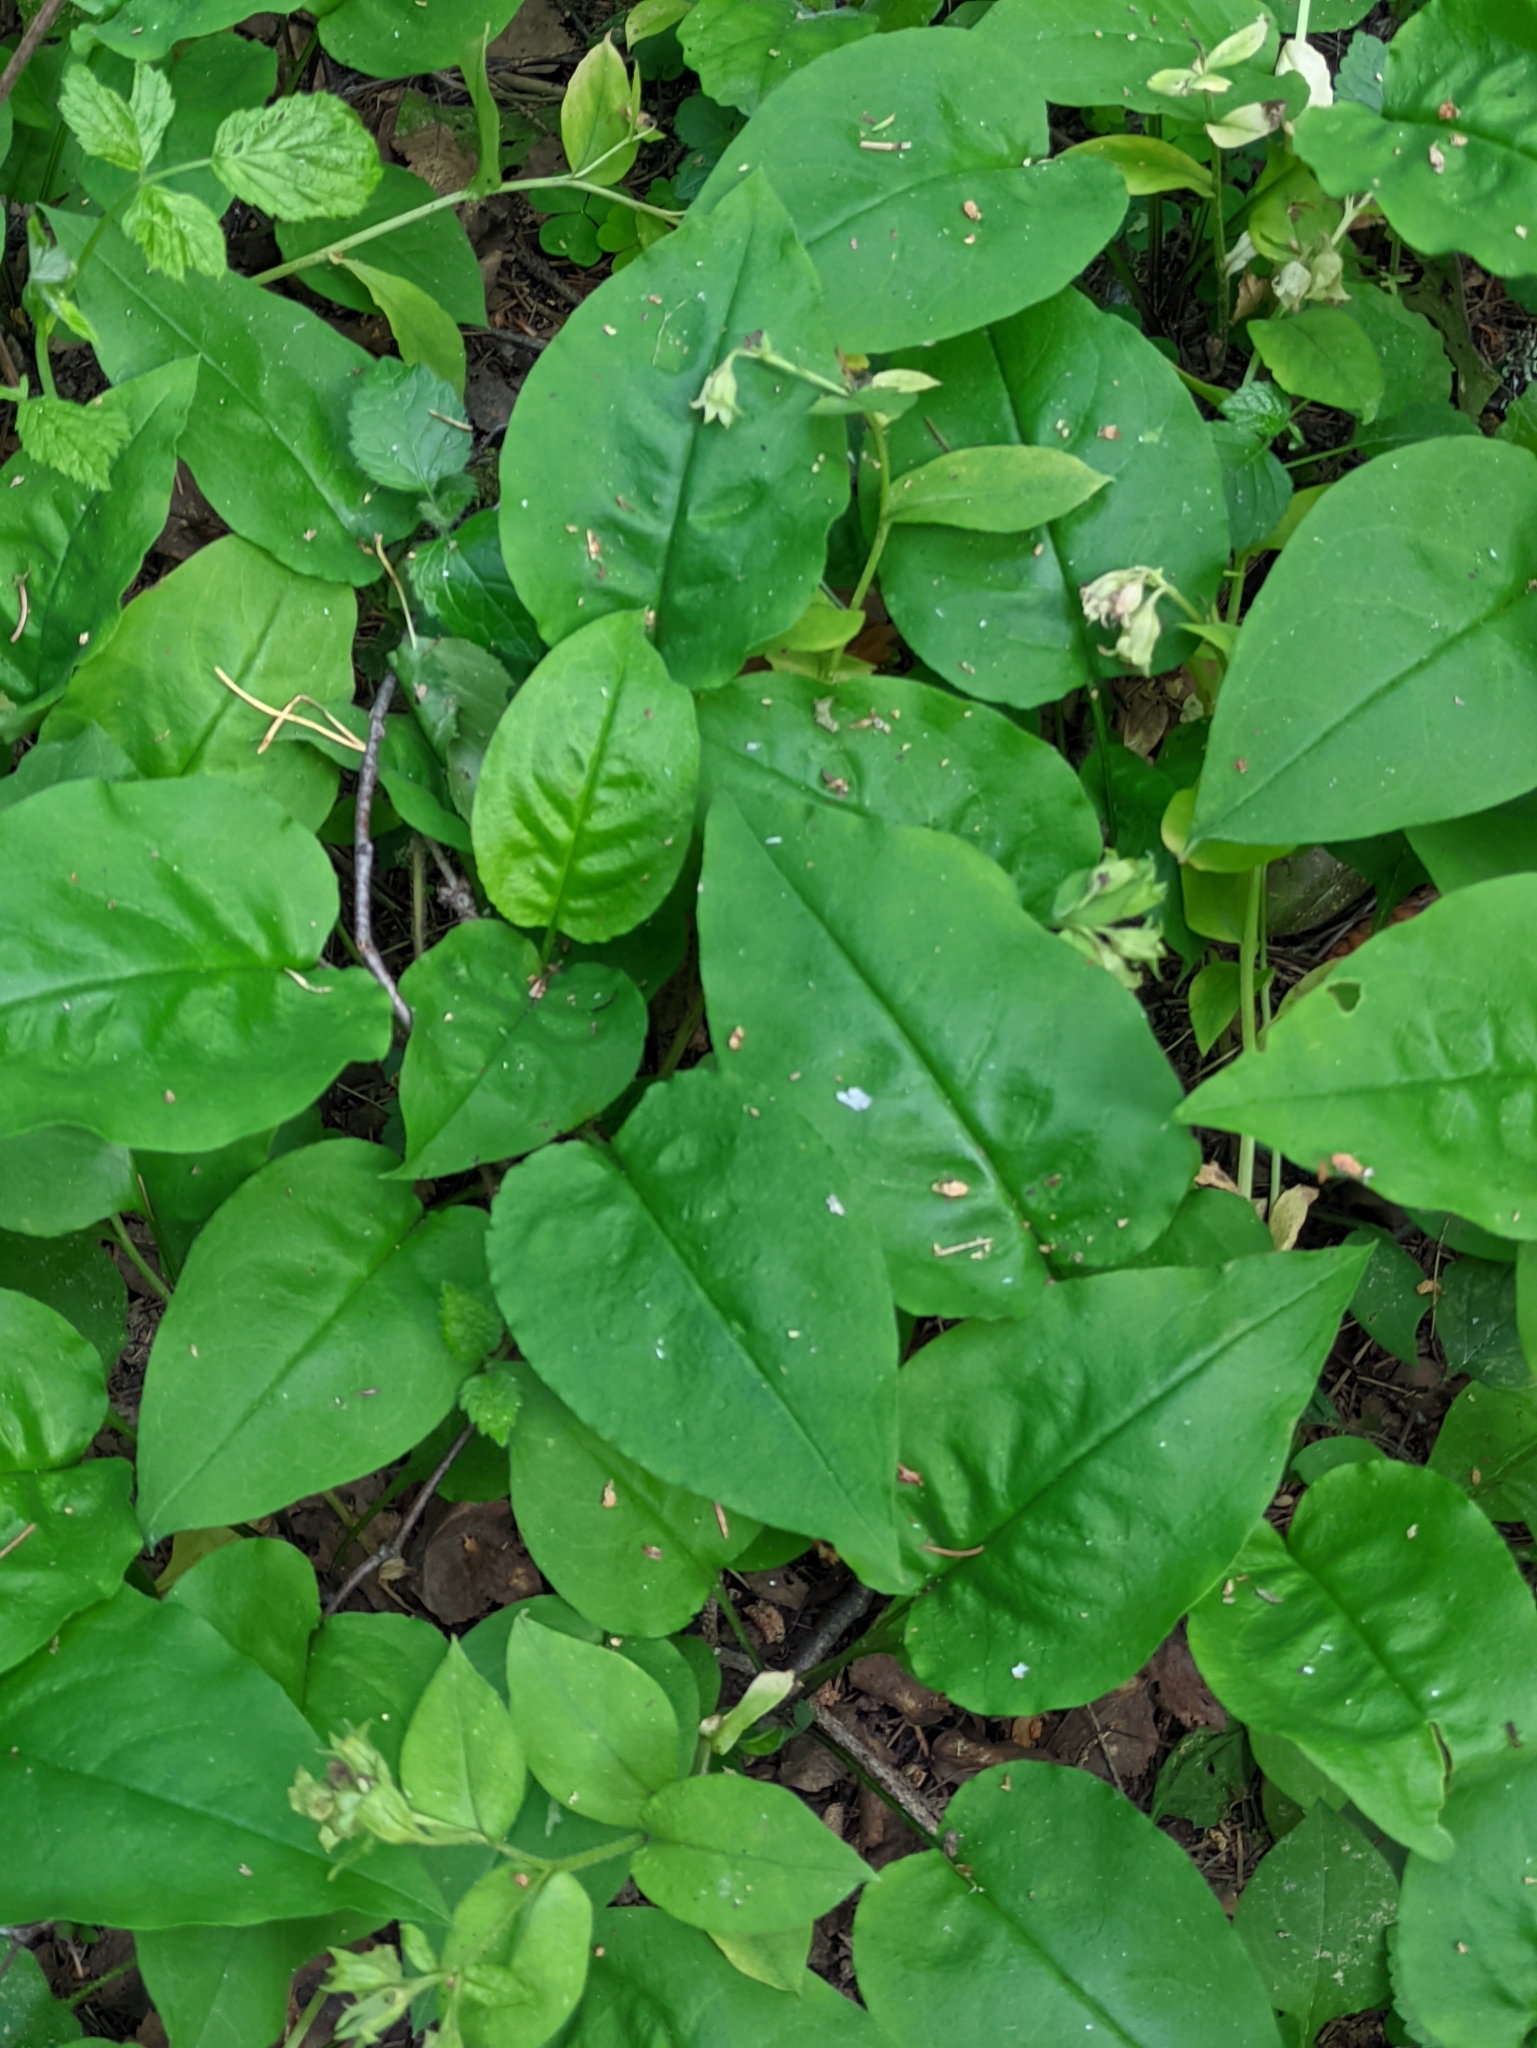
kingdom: Plantae
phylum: Tracheophyta
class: Magnoliopsida
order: Boraginales
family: Boraginaceae
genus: Pulmonaria
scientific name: Pulmonaria obscura
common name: Suffolk lungwort
